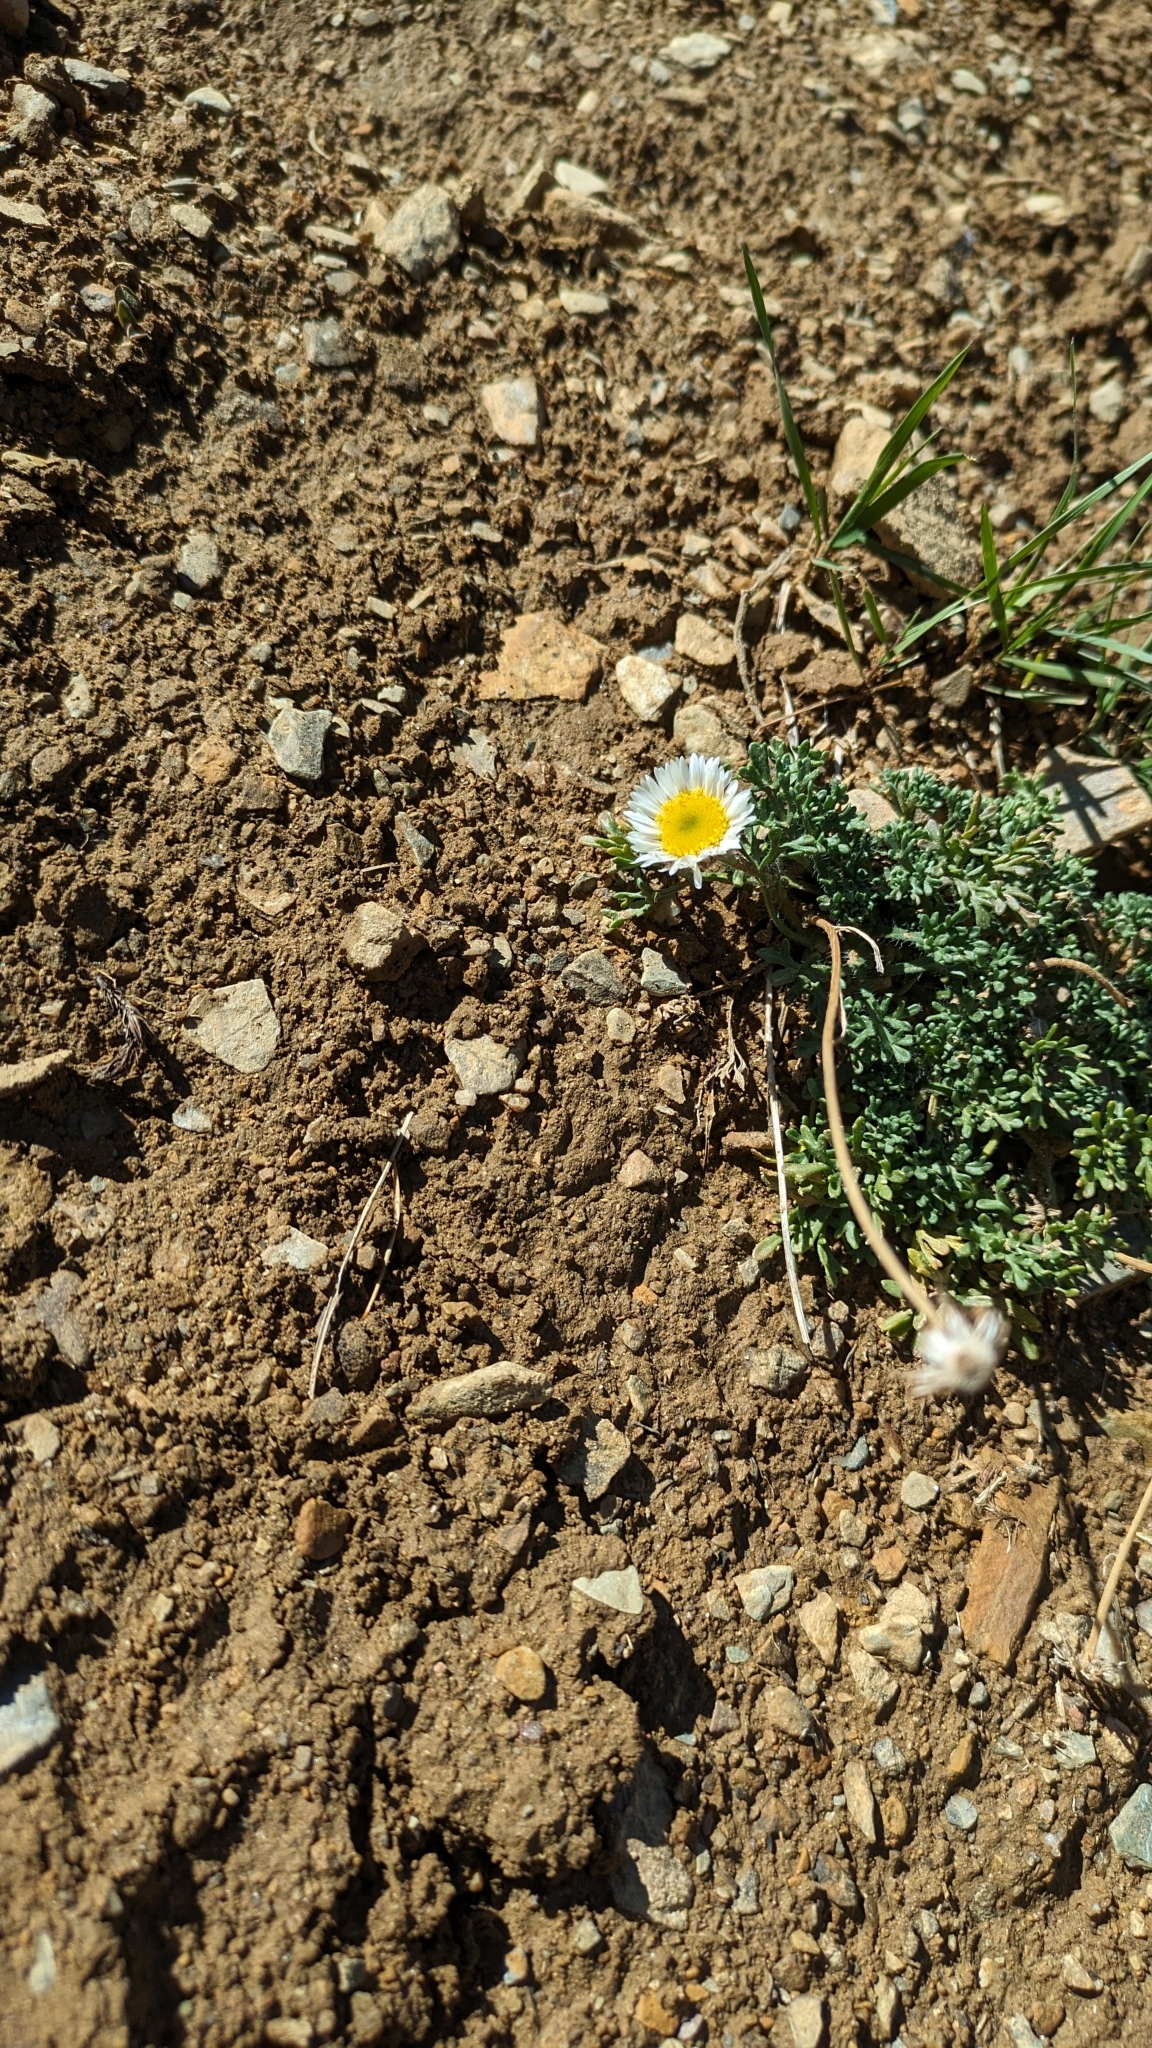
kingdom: Plantae
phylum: Tracheophyta
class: Magnoliopsida
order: Asterales
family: Asteraceae
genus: Erigeron
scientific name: Erigeron compositus
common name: Dwarf mountain fleabane
